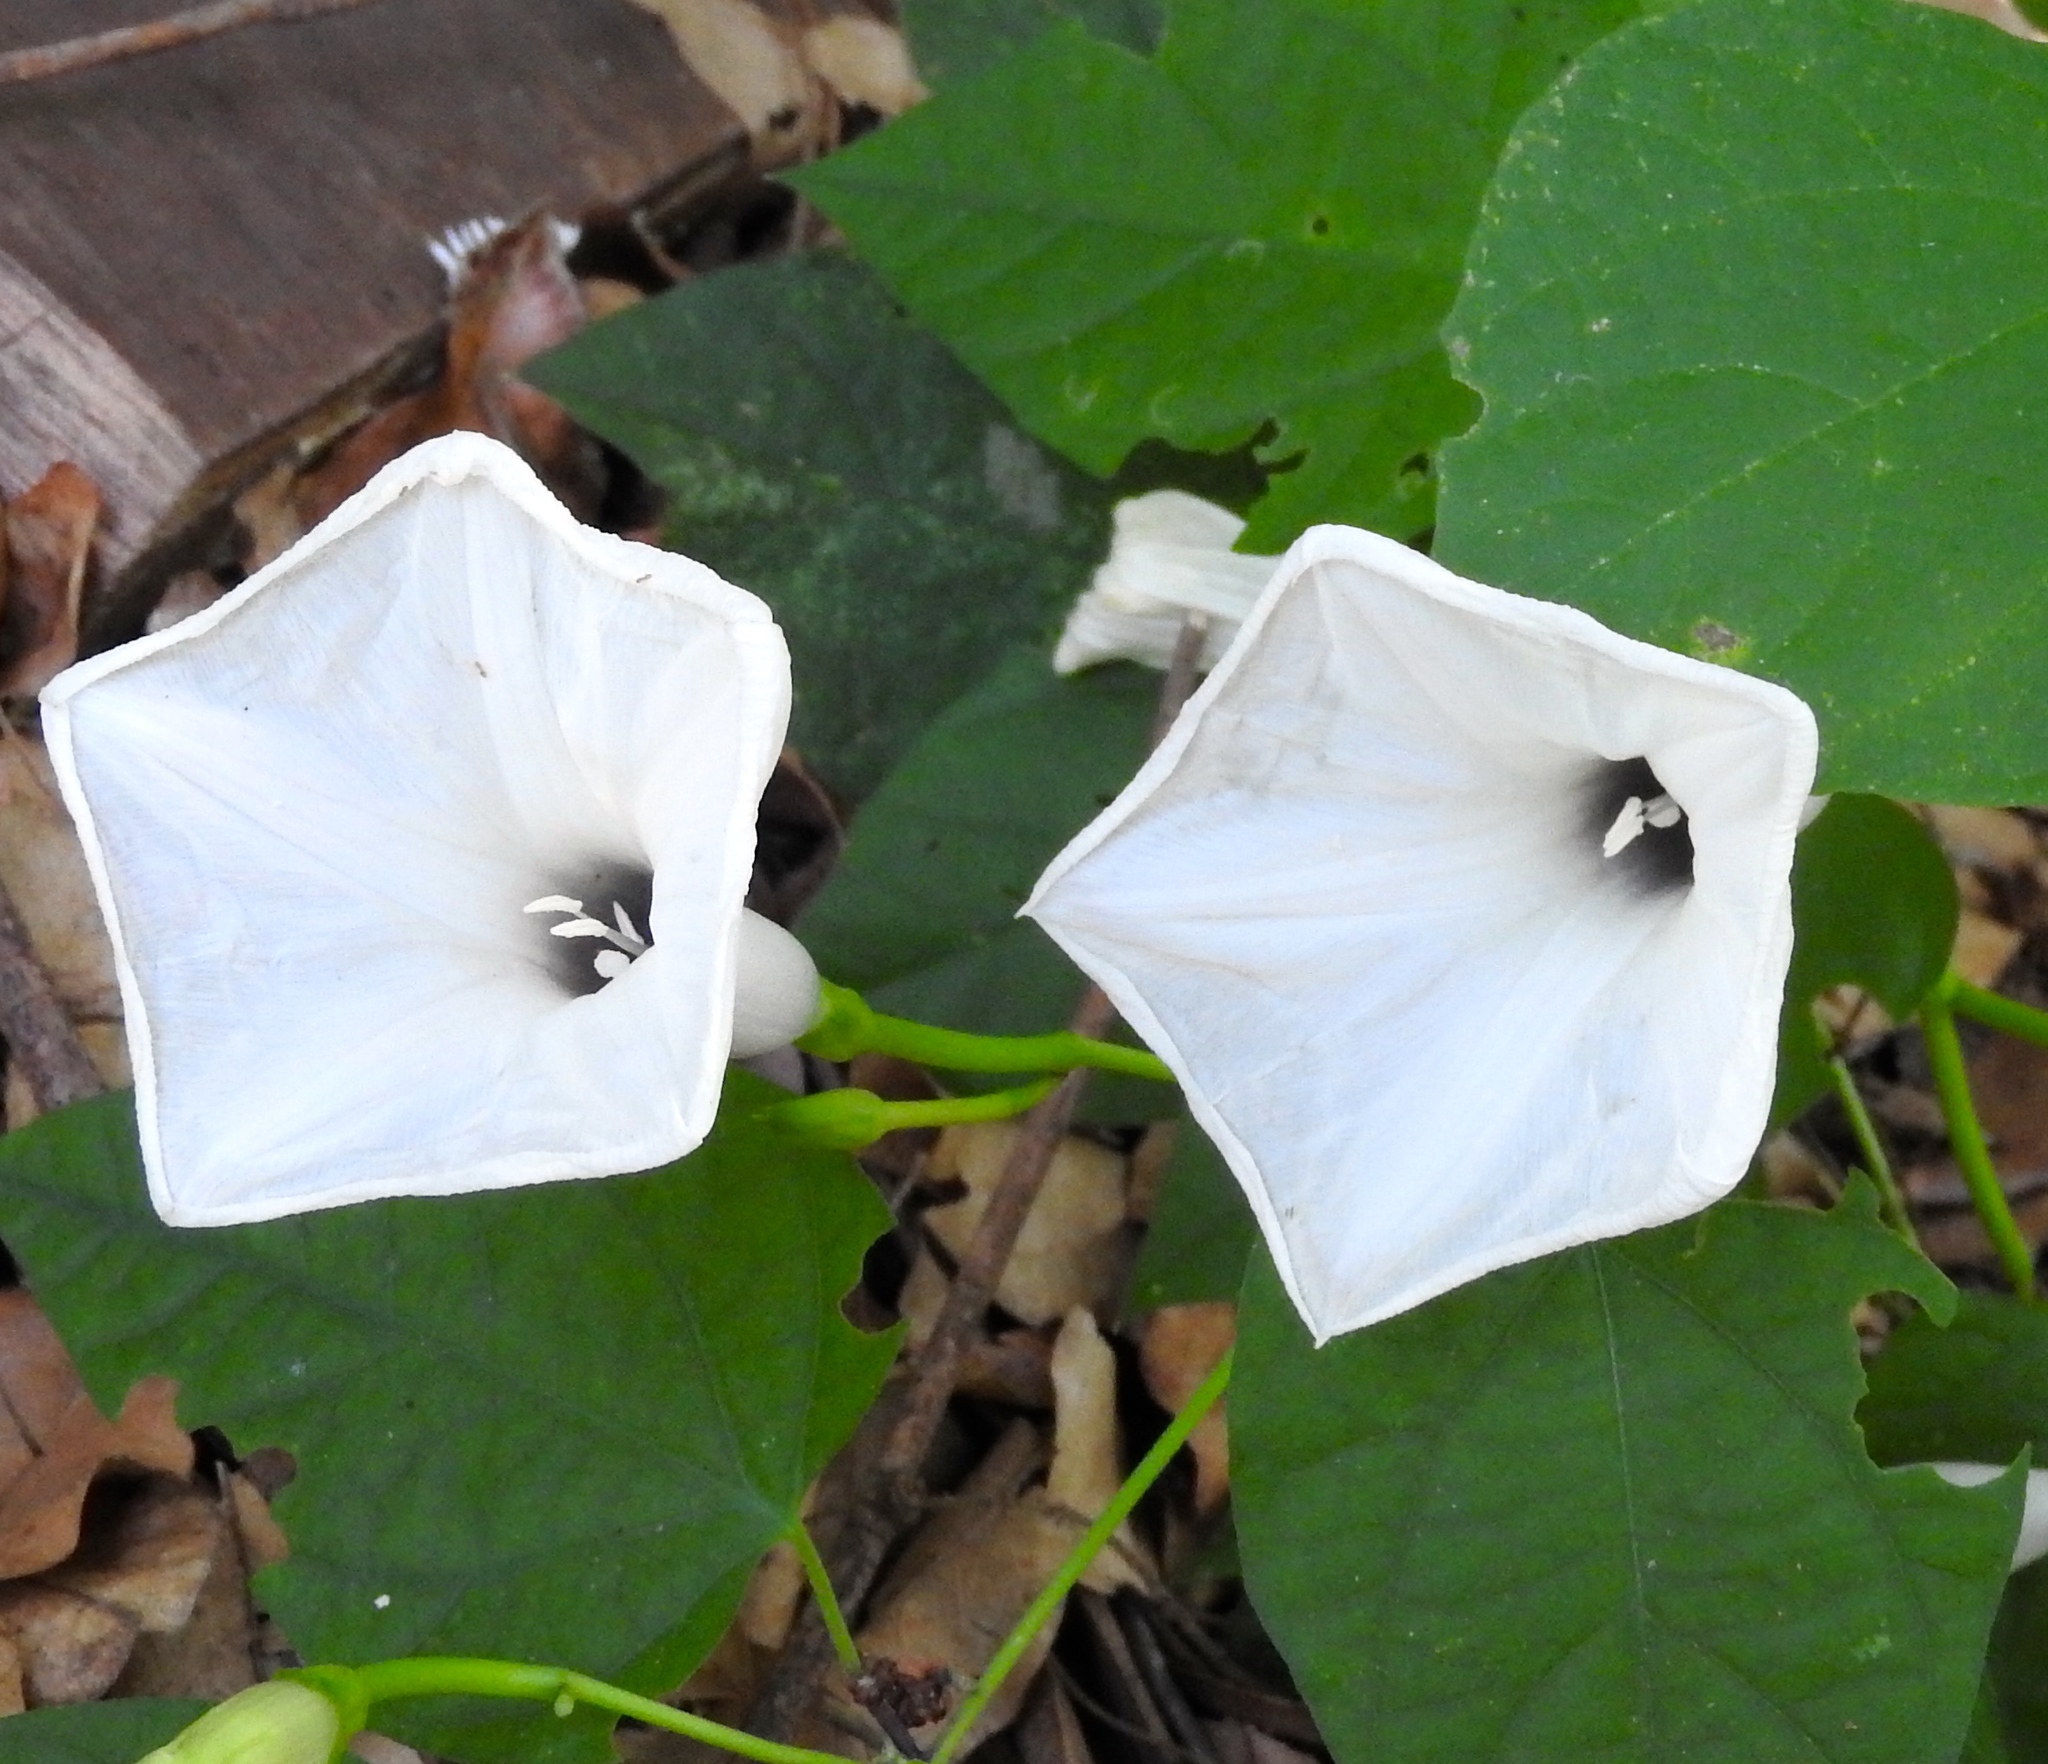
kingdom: Plantae
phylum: Tracheophyta
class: Magnoliopsida
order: Solanales
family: Convolvulaceae
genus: Ipomoea
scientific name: Ipomoea scopulorum
